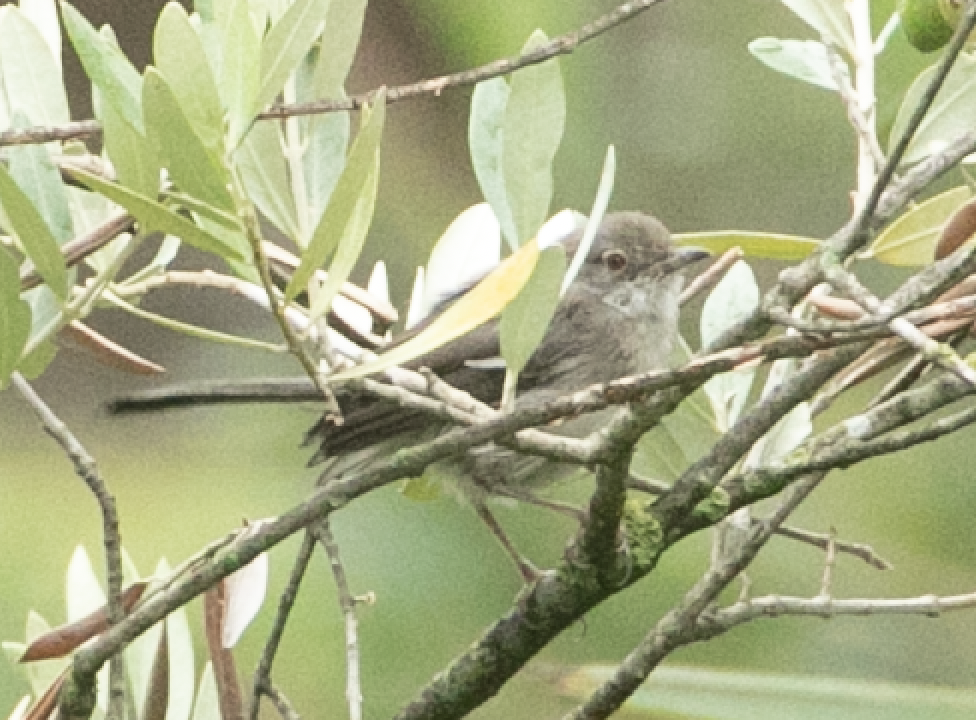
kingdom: Animalia
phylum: Chordata
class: Aves
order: Passeriformes
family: Sylviidae
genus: Curruca
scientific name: Curruca melanocephala
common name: Sardinian warbler
